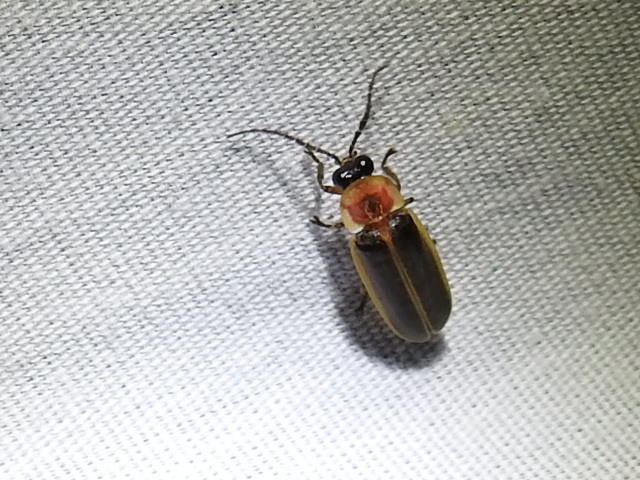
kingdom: Animalia
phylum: Arthropoda
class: Insecta
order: Coleoptera
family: Lampyridae
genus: Photinus
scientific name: Photinus pyralis
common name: Big dipper firefly
